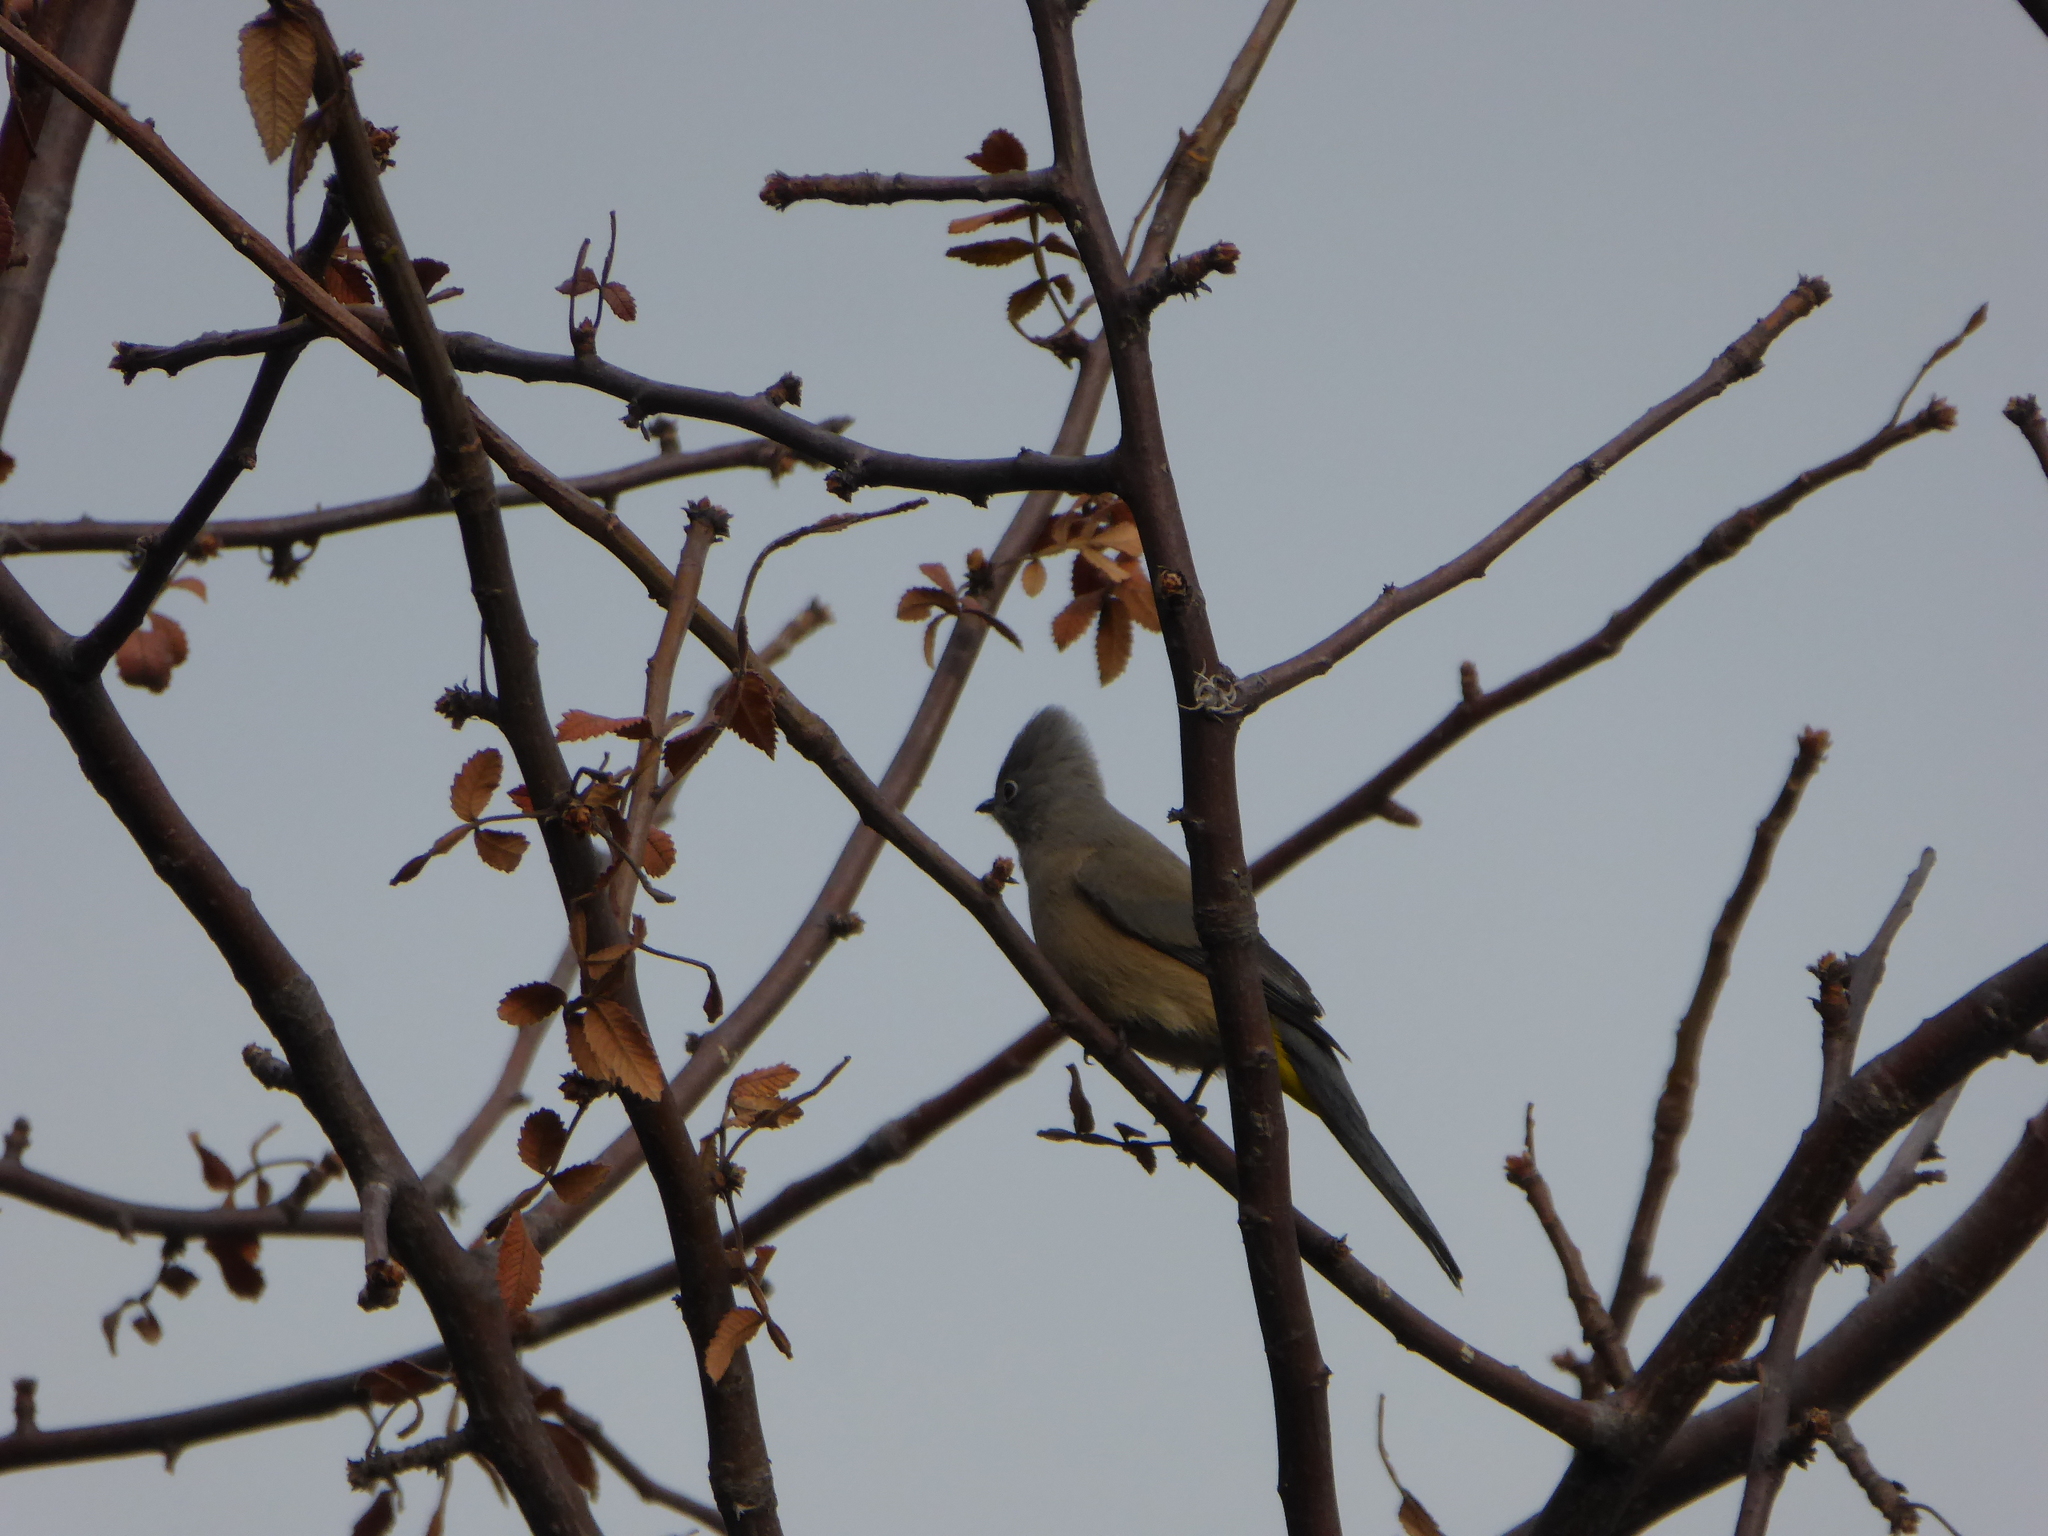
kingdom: Animalia
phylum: Chordata
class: Aves
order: Passeriformes
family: Ptilogonatidae
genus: Ptilogonys
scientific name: Ptilogonys cinereus
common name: Gray silky-flycatcher
